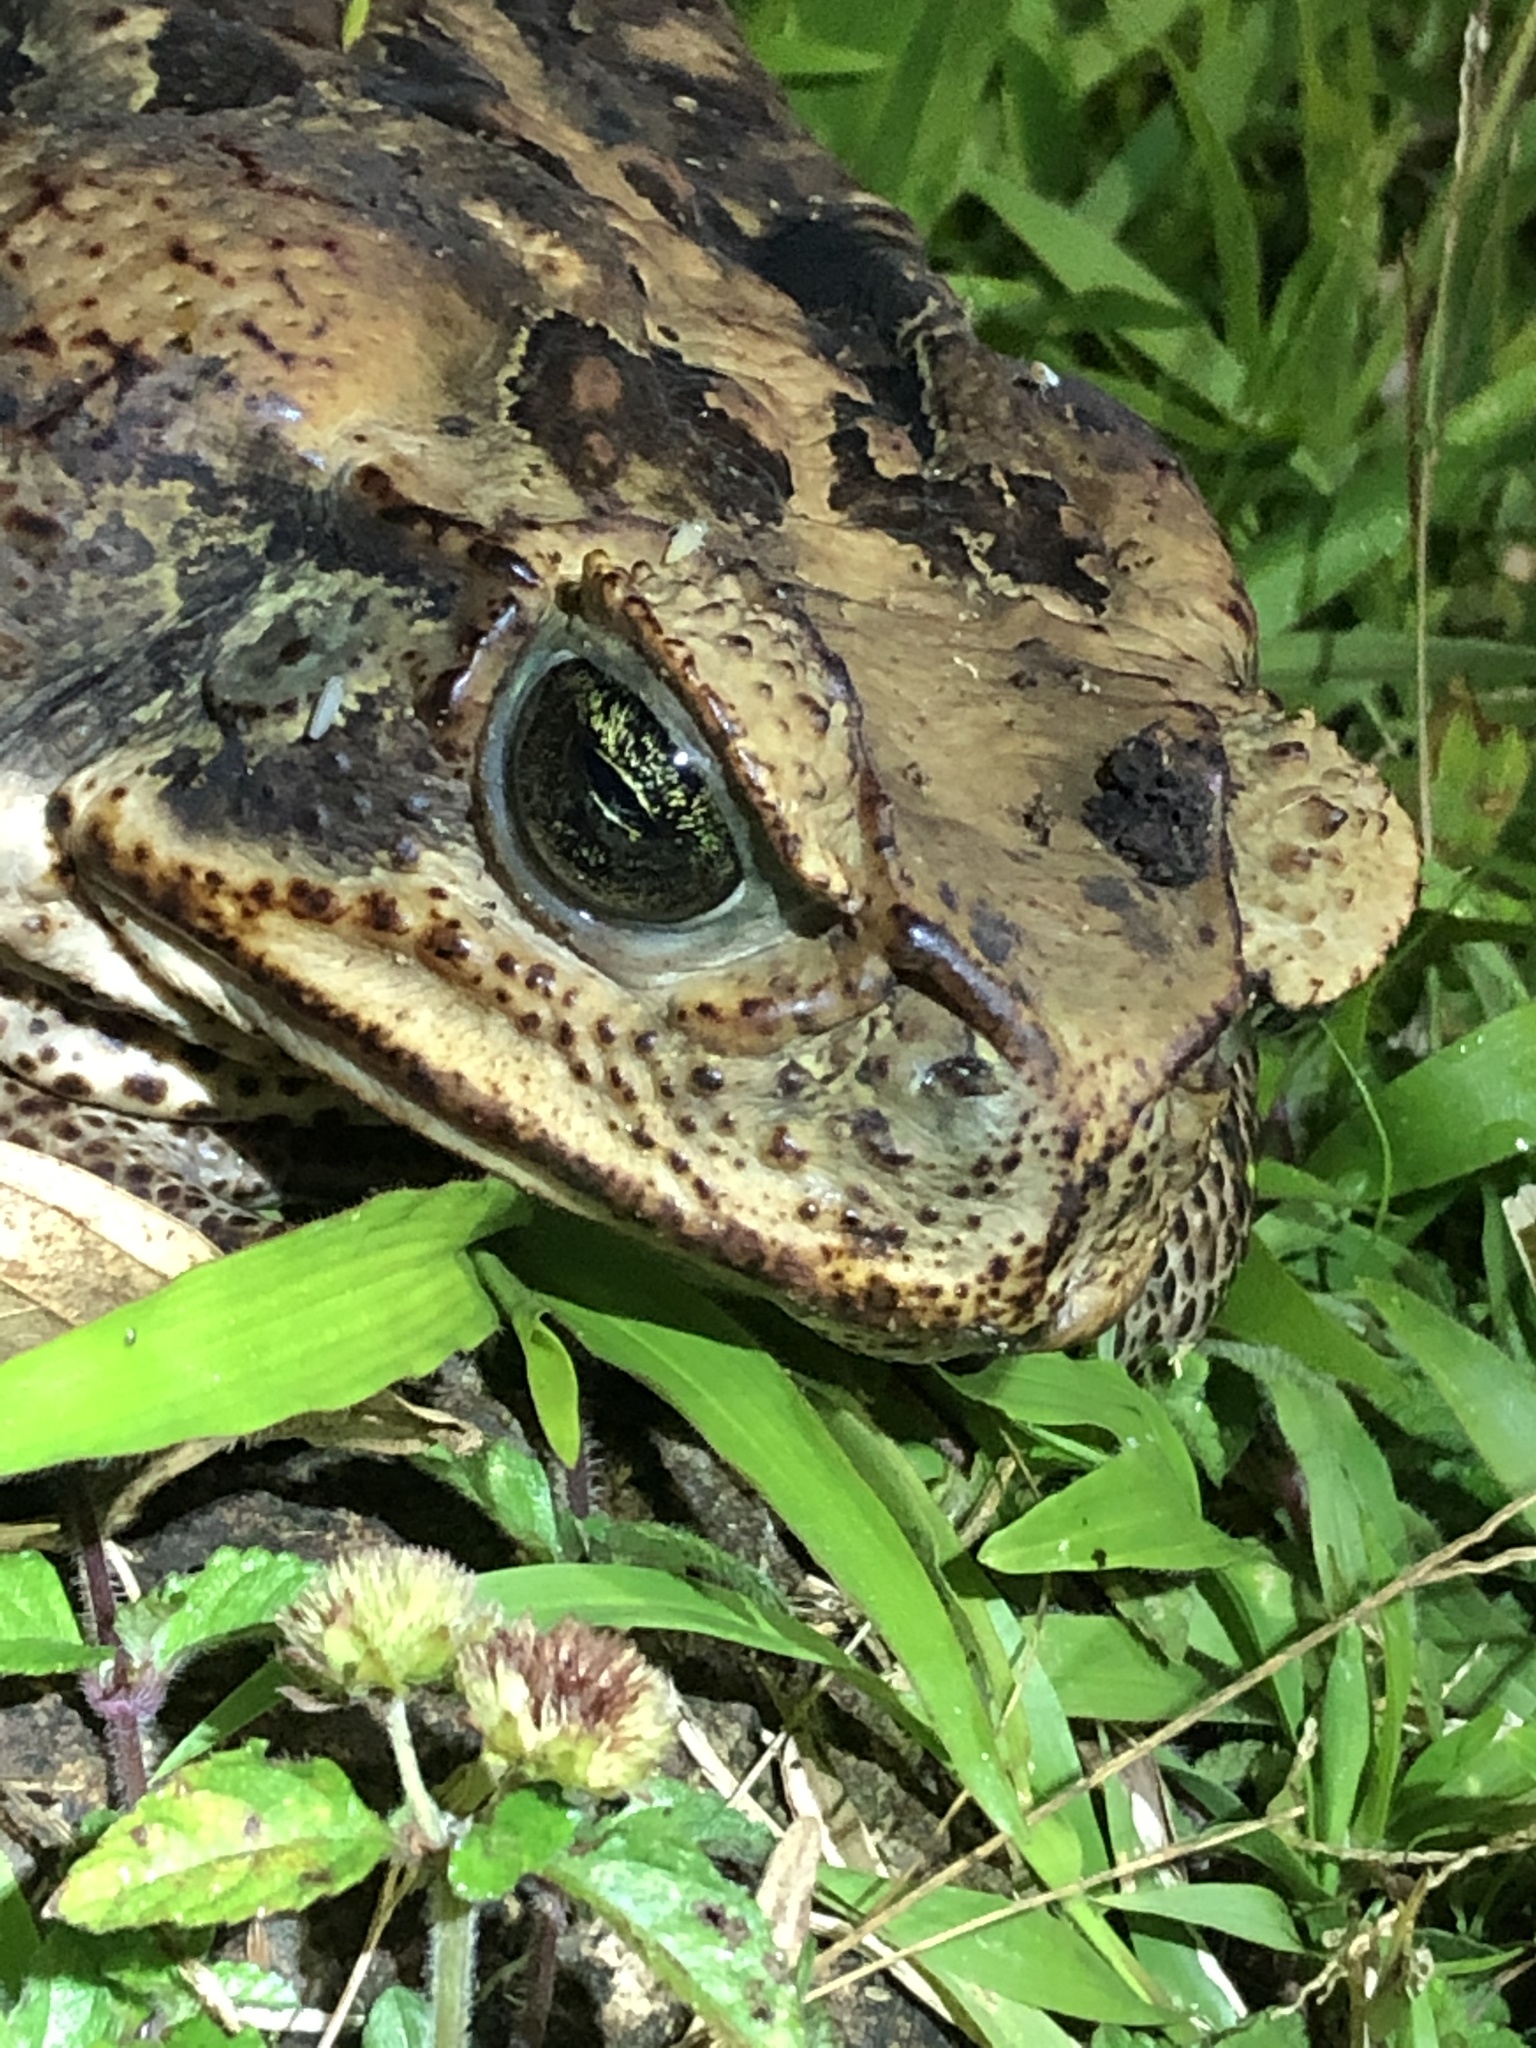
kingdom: Animalia
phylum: Chordata
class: Amphibia
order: Anura
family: Bufonidae
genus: Rhinella
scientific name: Rhinella marina
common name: Cane toad
